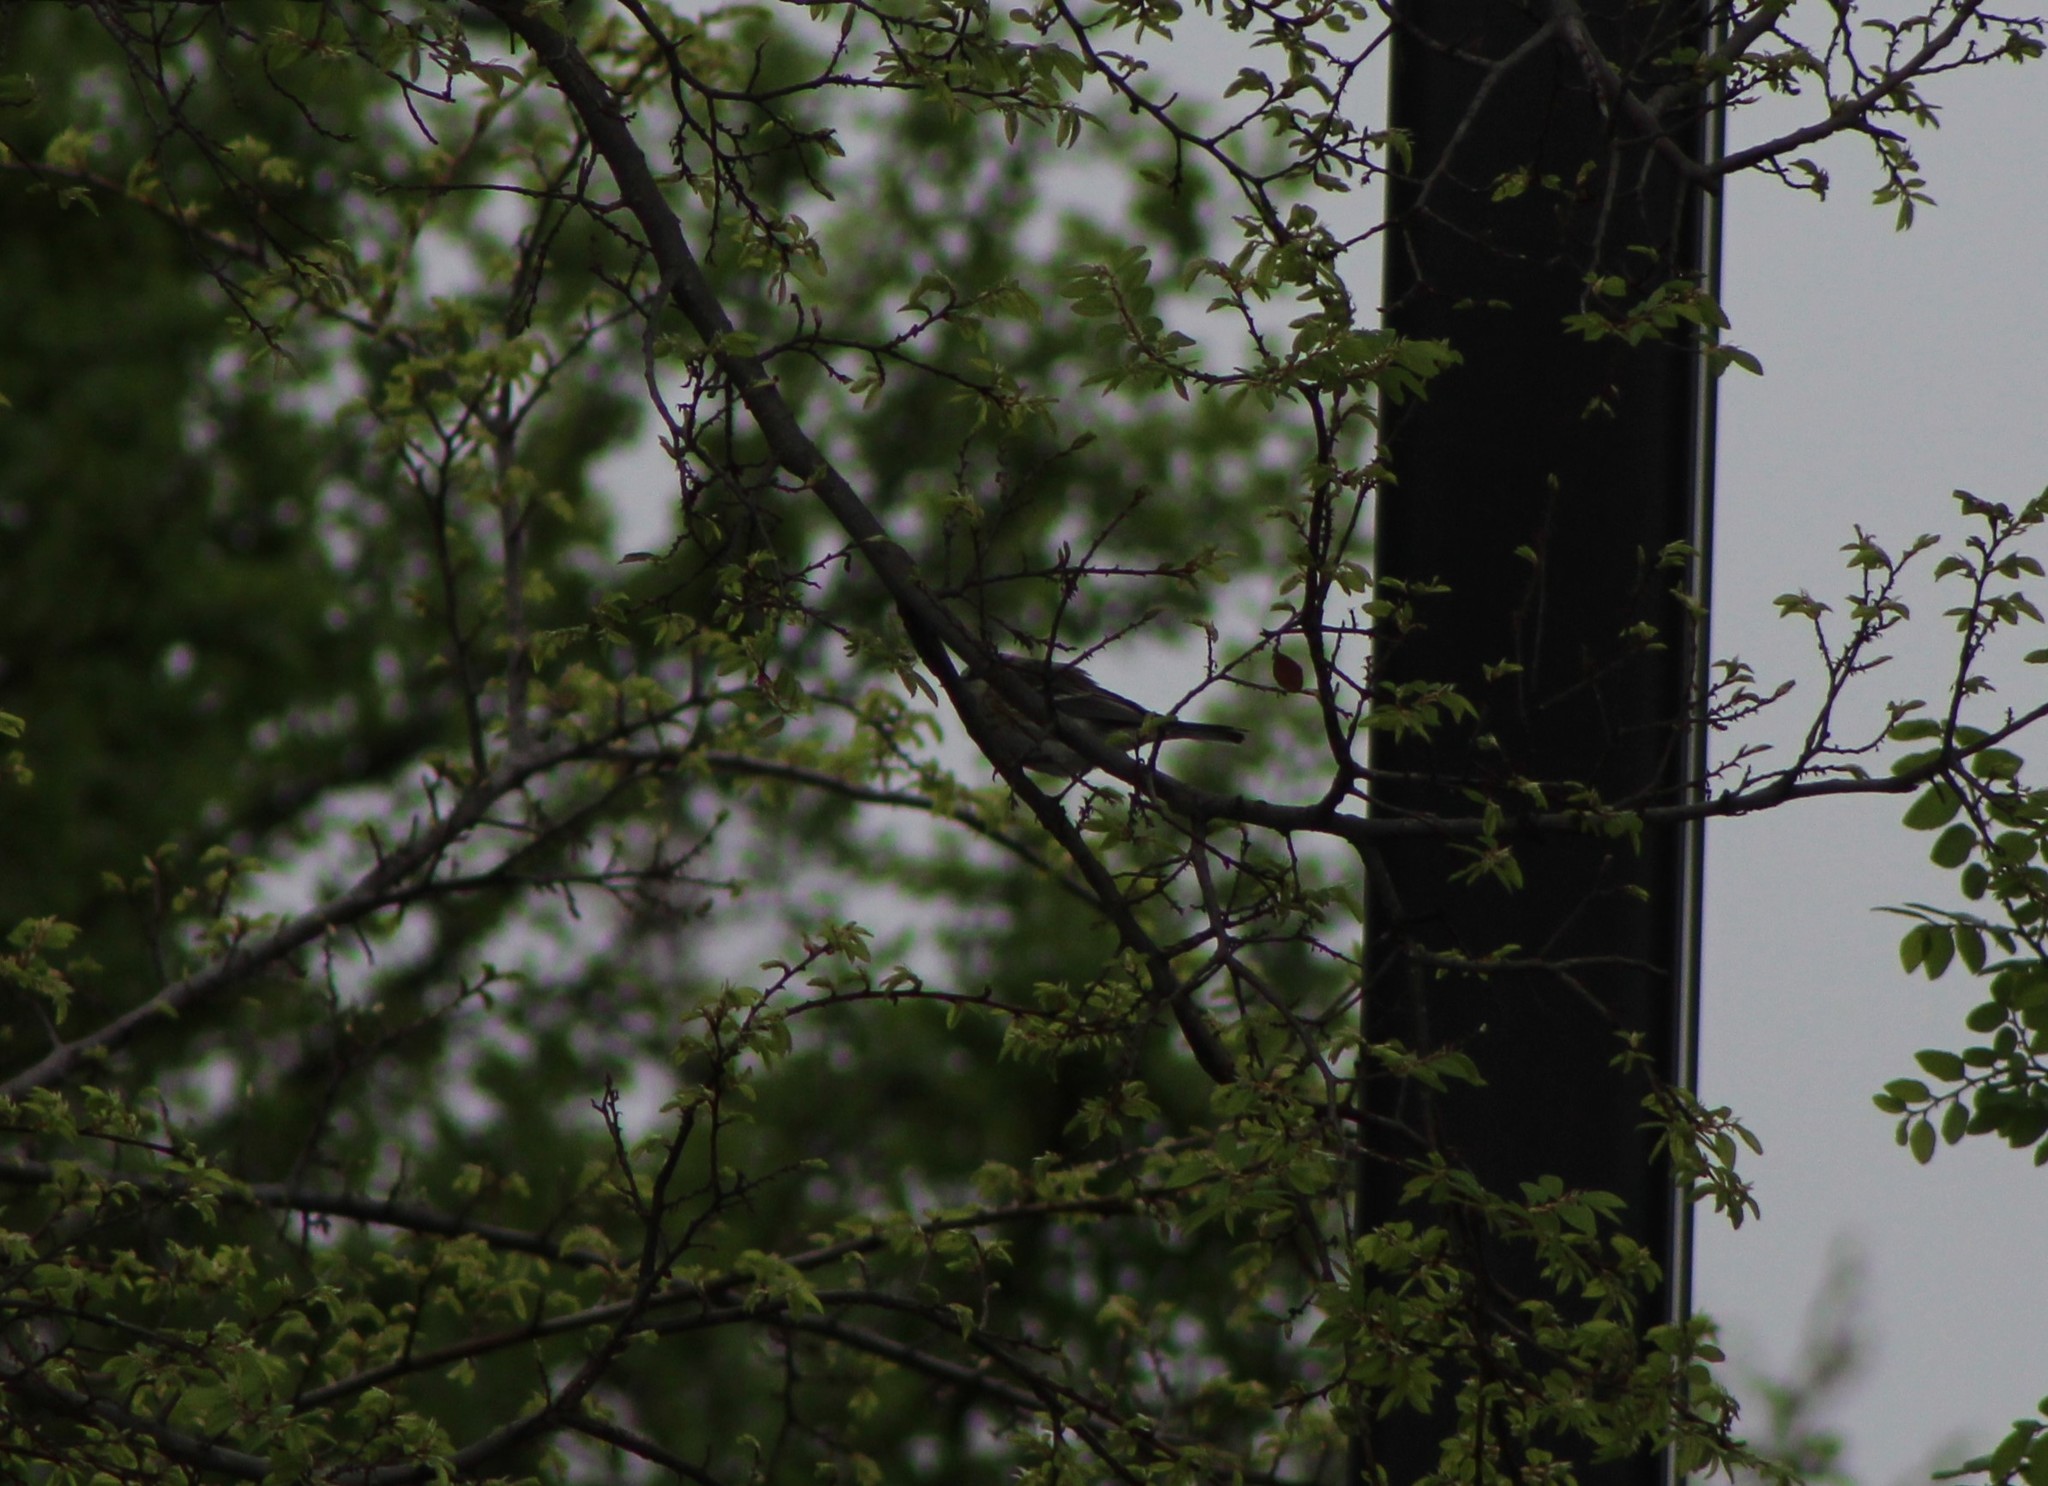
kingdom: Animalia
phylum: Chordata
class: Aves
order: Passeriformes
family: Parulidae
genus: Setophaga
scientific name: Setophaga coronata
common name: Myrtle warbler
